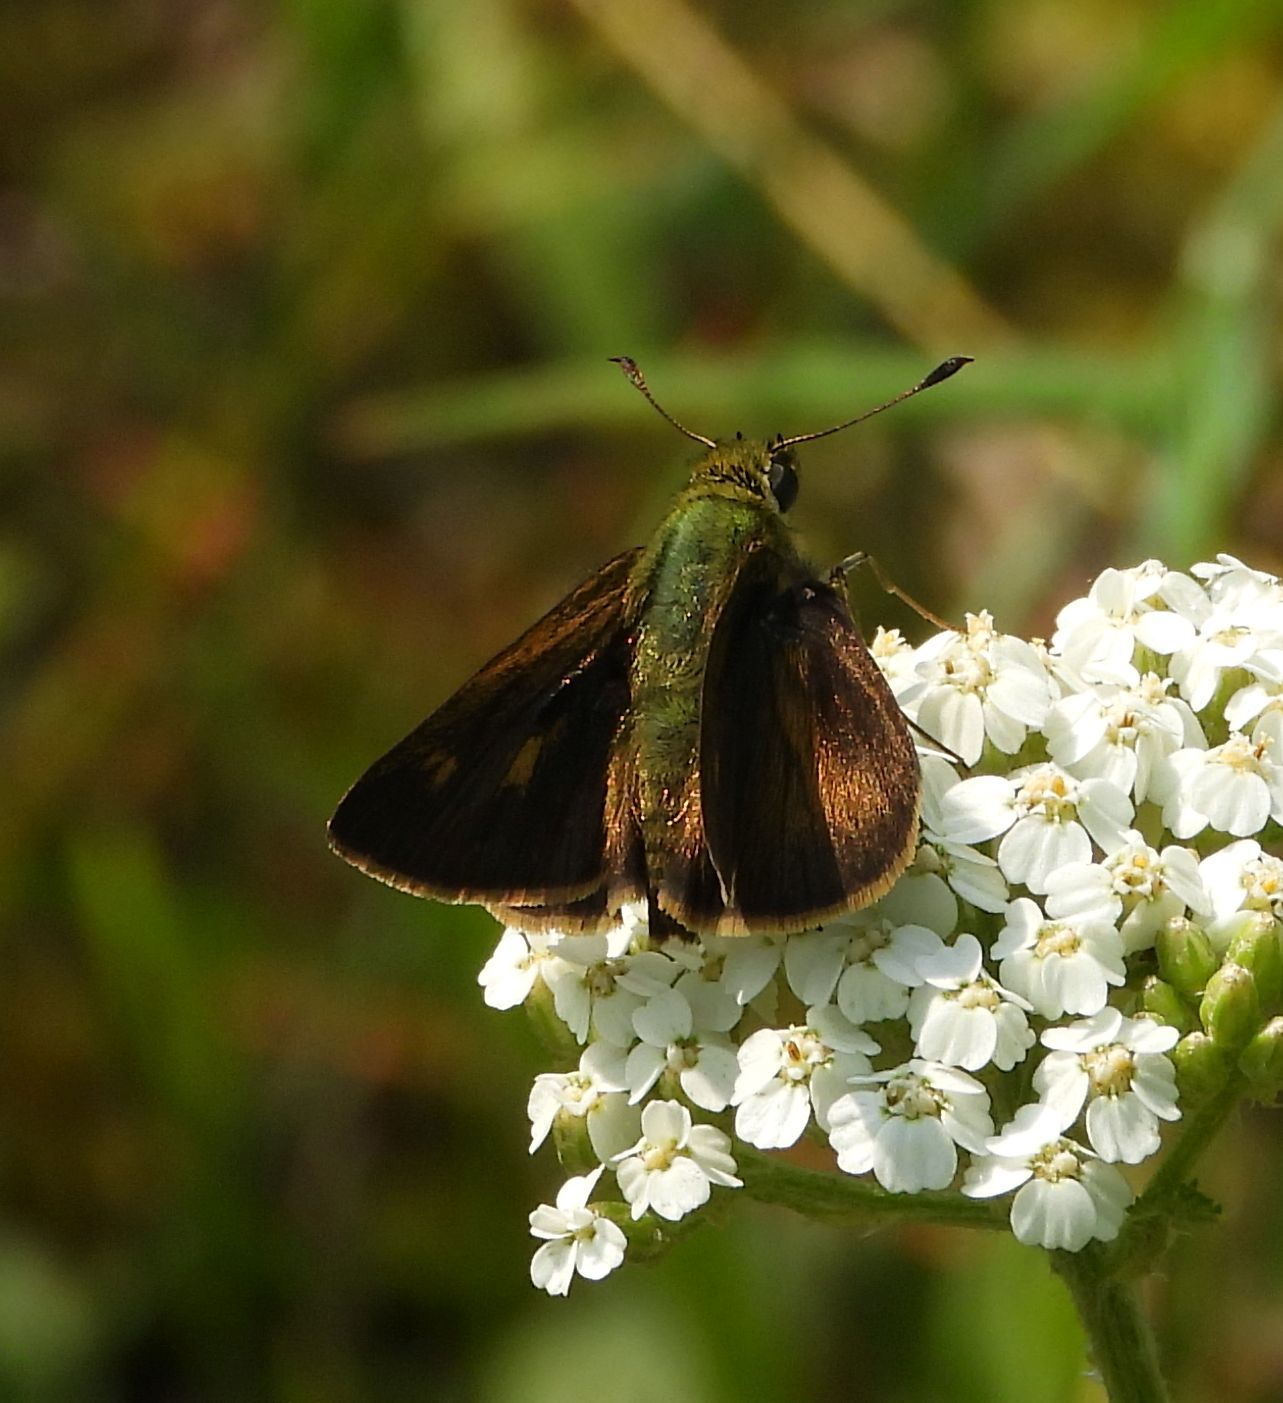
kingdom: Animalia
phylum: Arthropoda
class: Insecta
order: Lepidoptera
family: Hesperiidae
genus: Polites
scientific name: Polites egeremet
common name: Northern broken-dash
